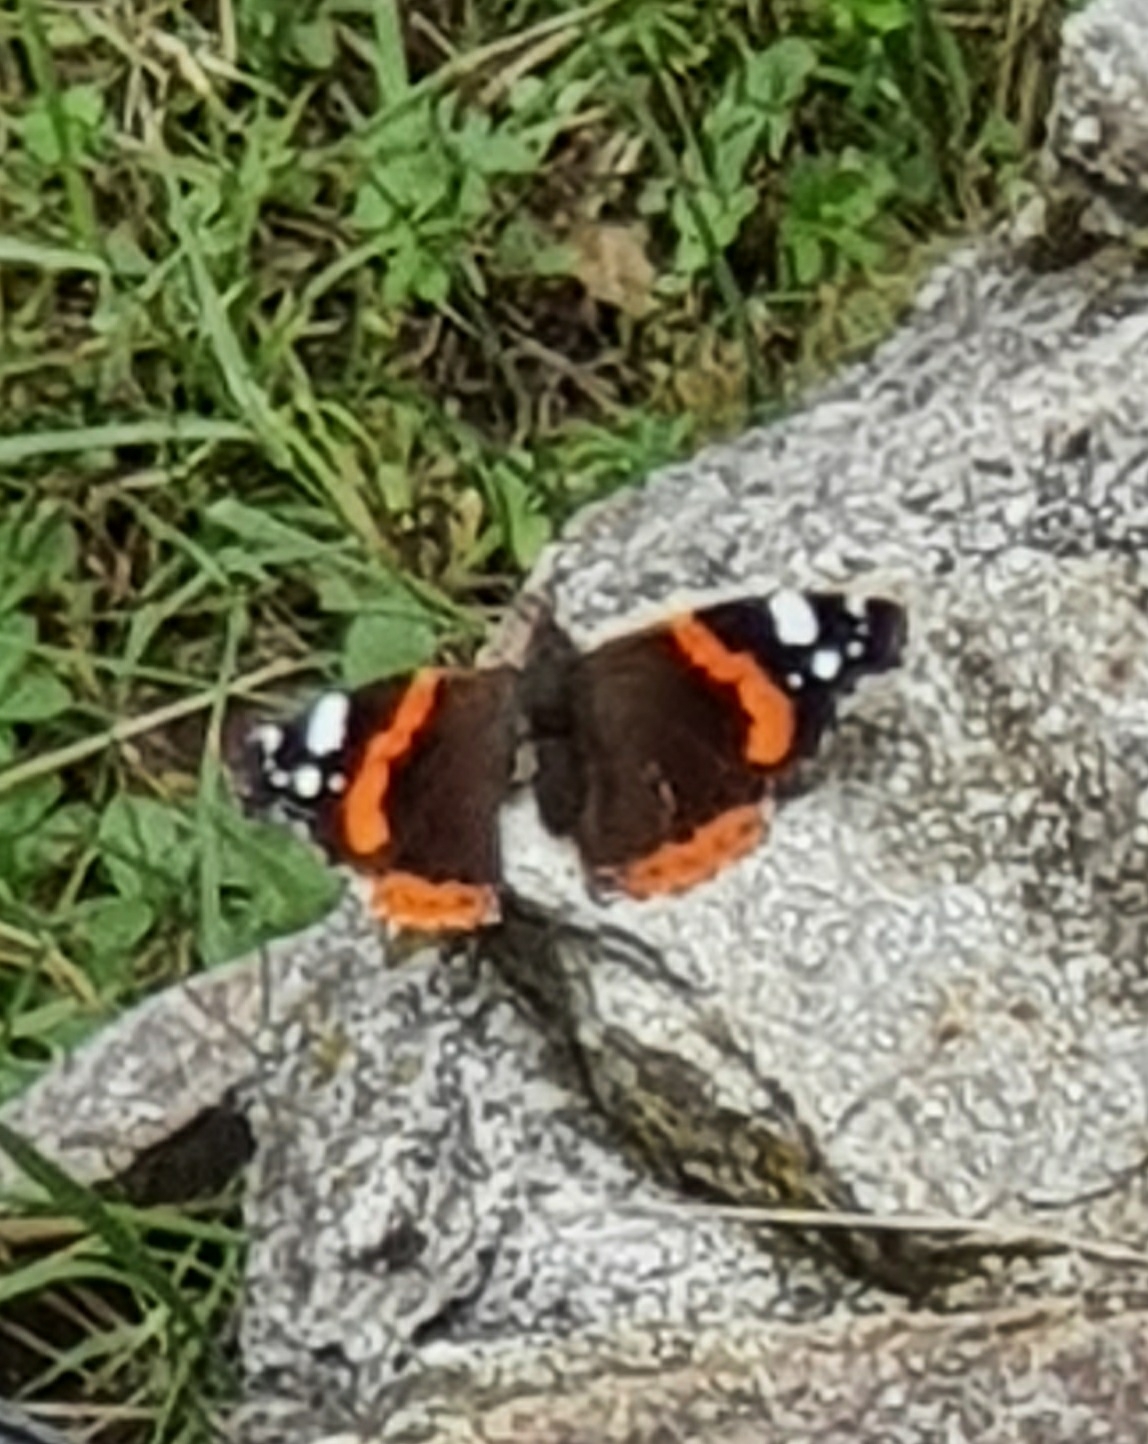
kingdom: Animalia
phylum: Arthropoda
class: Insecta
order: Lepidoptera
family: Nymphalidae
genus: Vanessa
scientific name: Vanessa atalanta
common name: Red admiral
